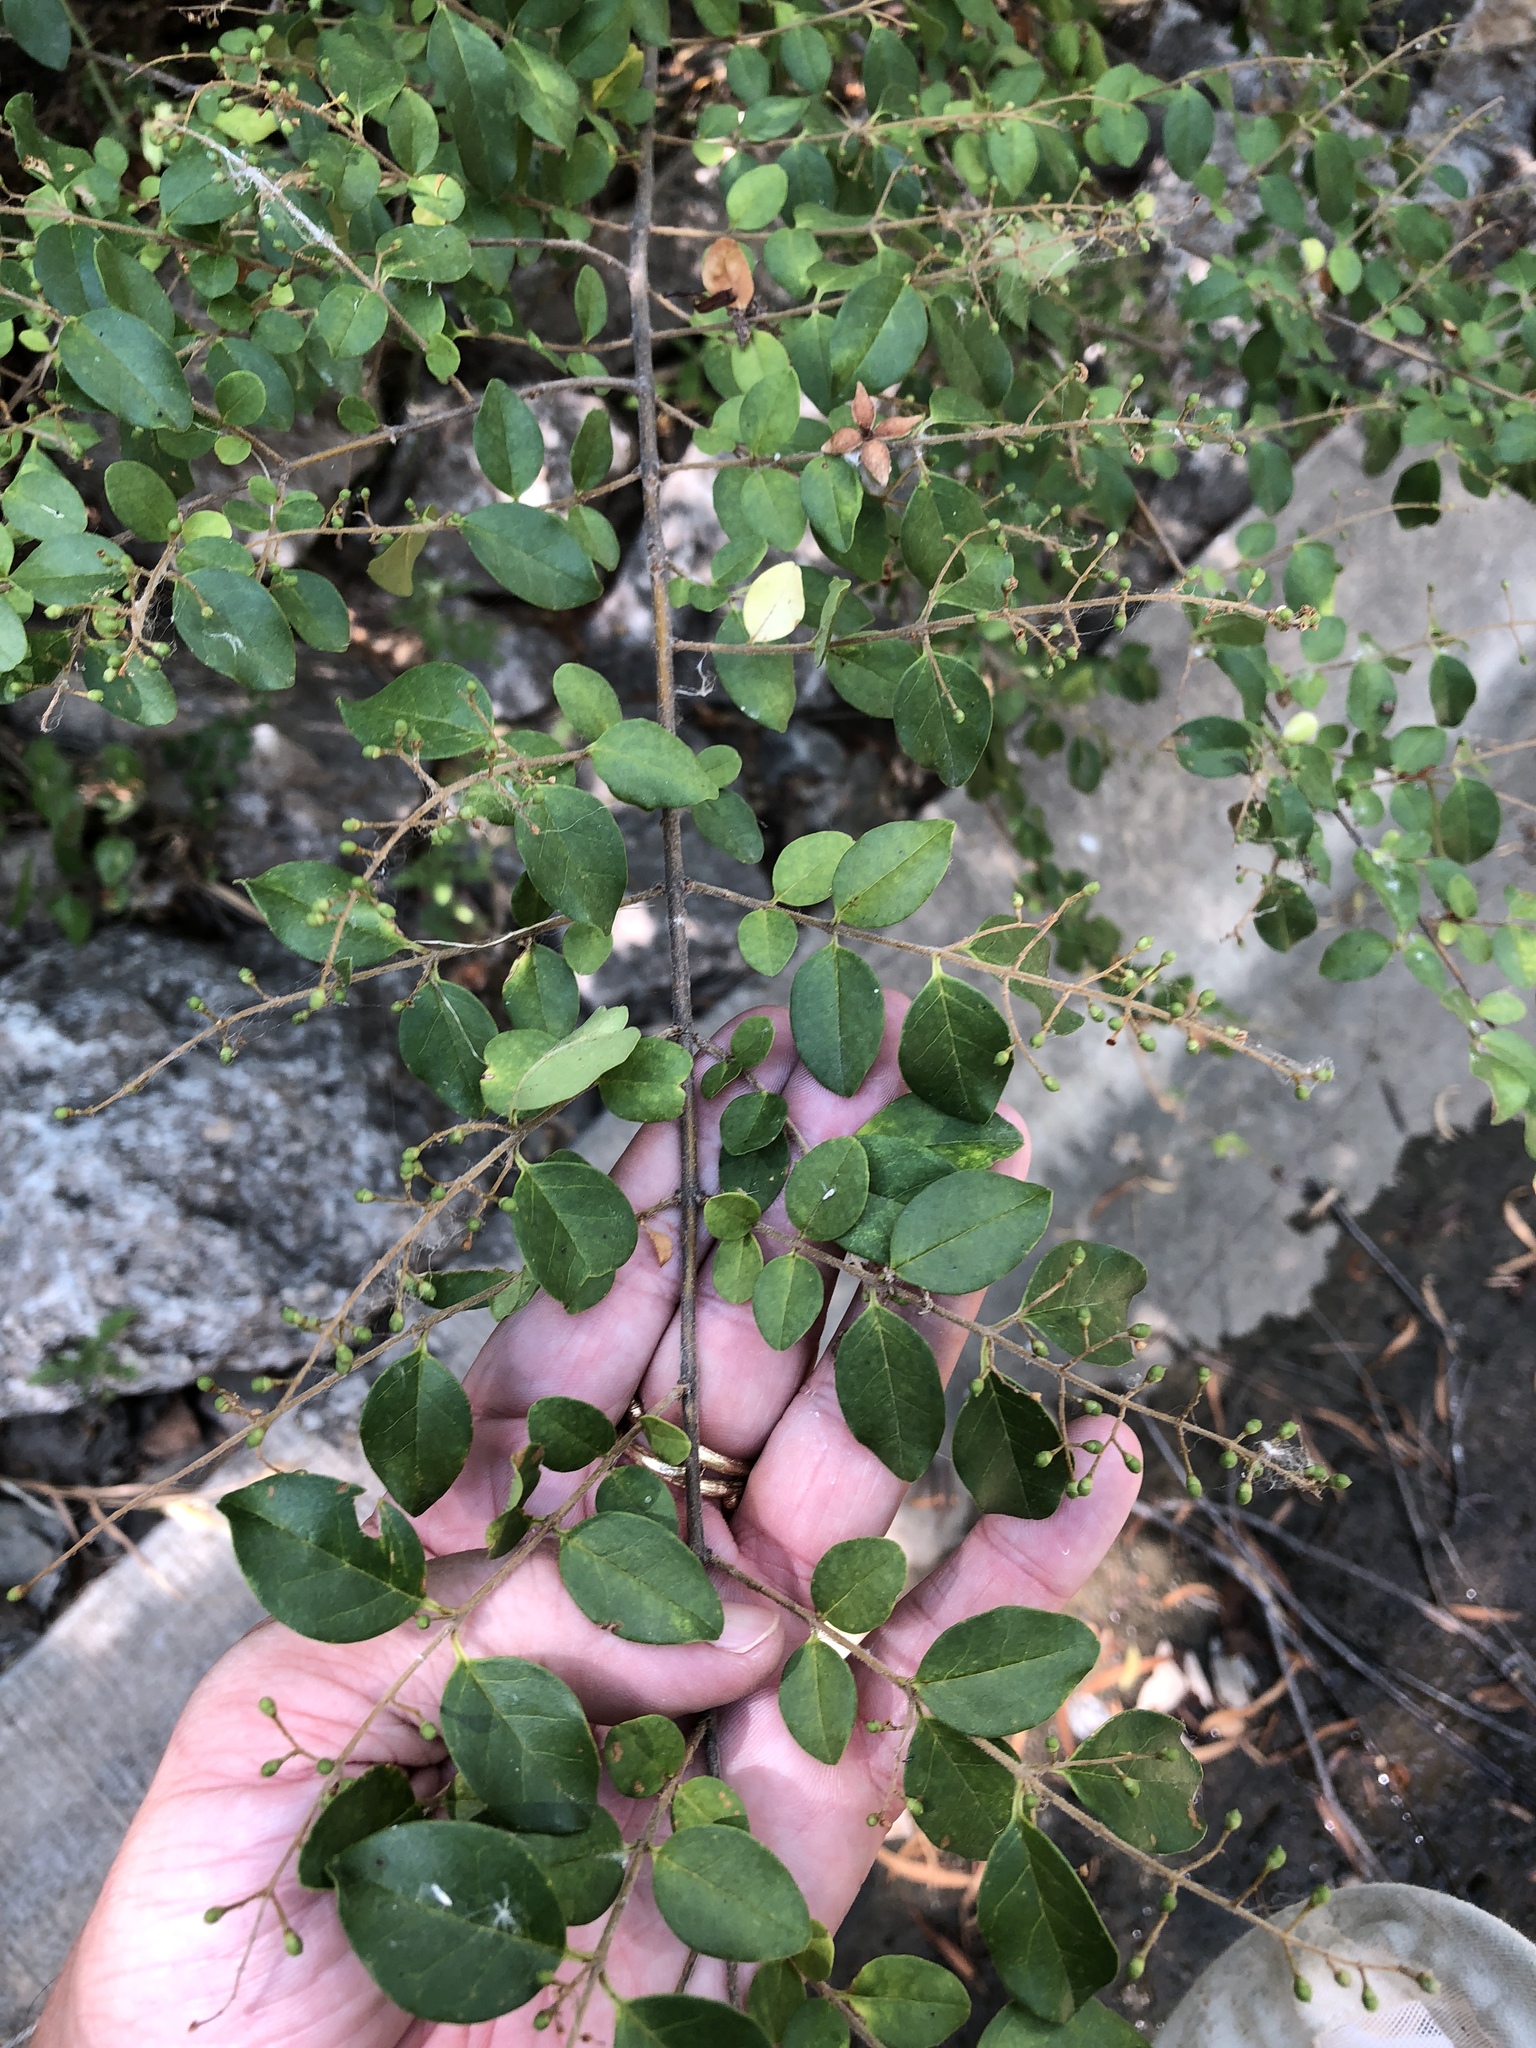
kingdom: Plantae
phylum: Tracheophyta
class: Magnoliopsida
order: Lamiales
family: Oleaceae
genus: Ligustrum
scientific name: Ligustrum sinense
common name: Chinese privet
